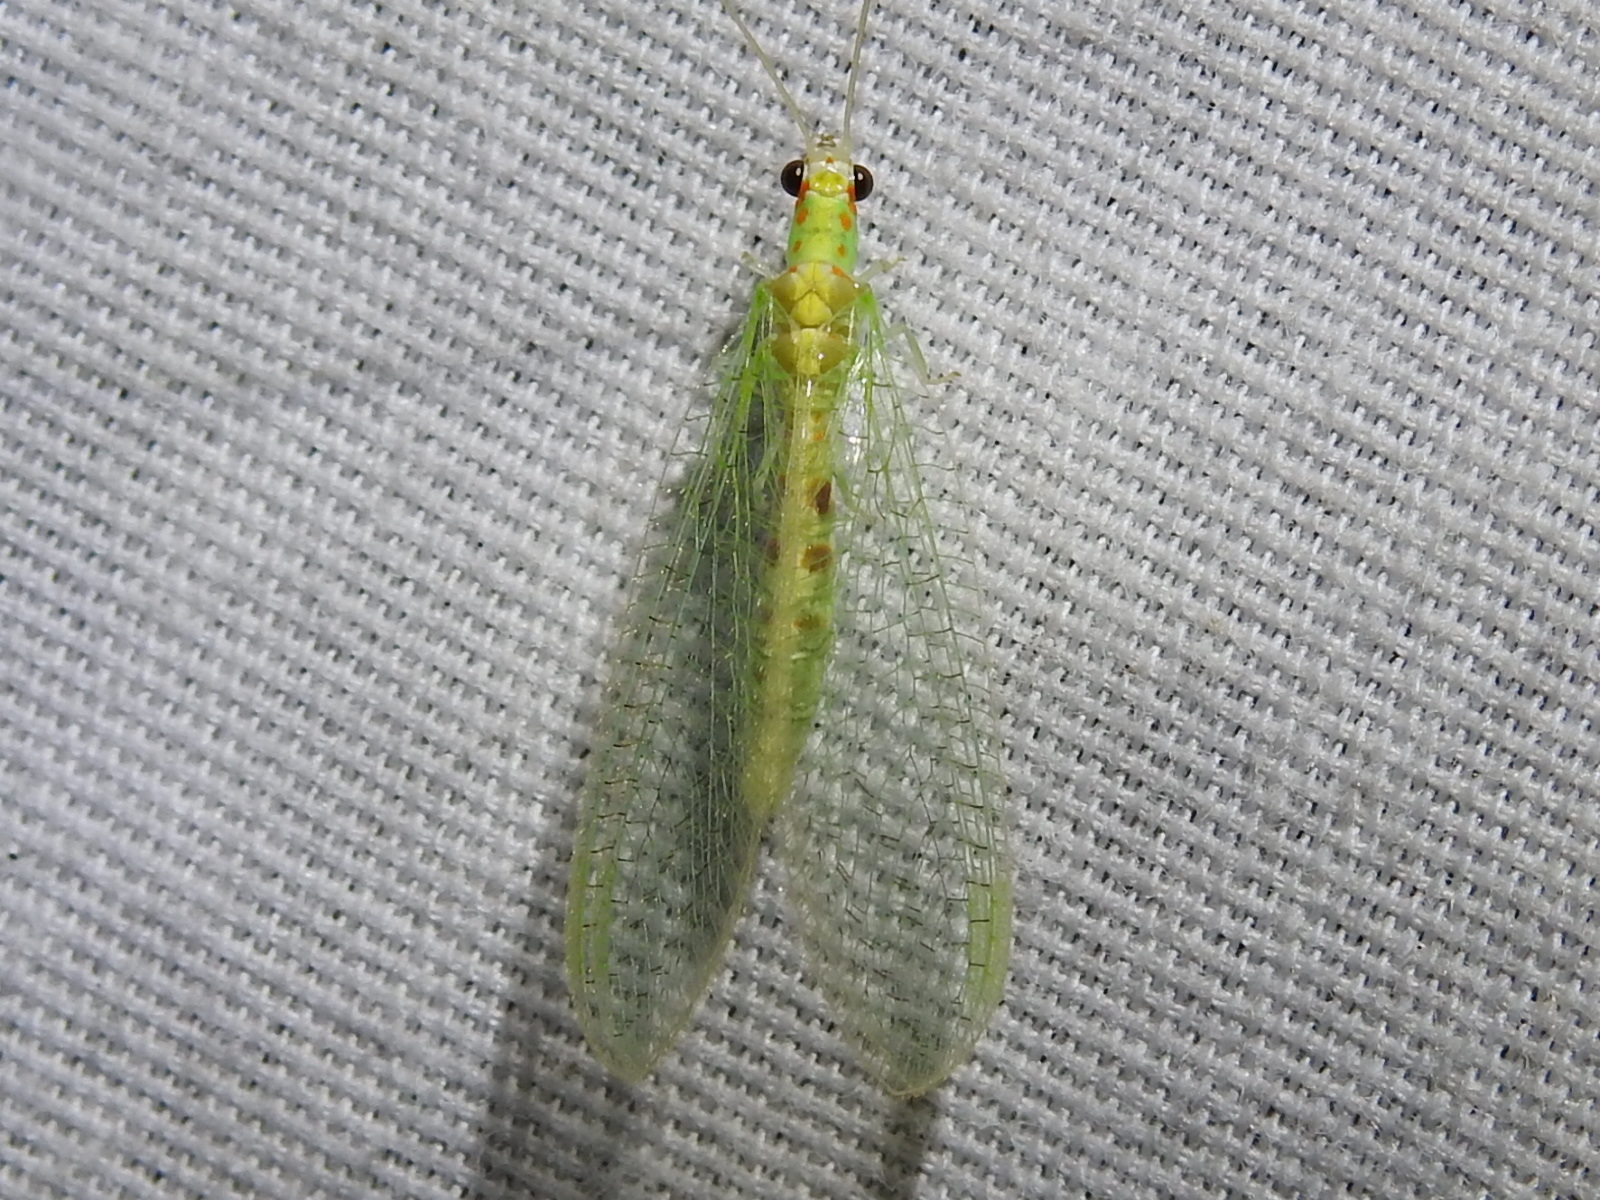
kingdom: Animalia
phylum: Arthropoda
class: Insecta
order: Neuroptera
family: Chrysopidae
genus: Chrysopa
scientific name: Chrysopa quadripunctata
